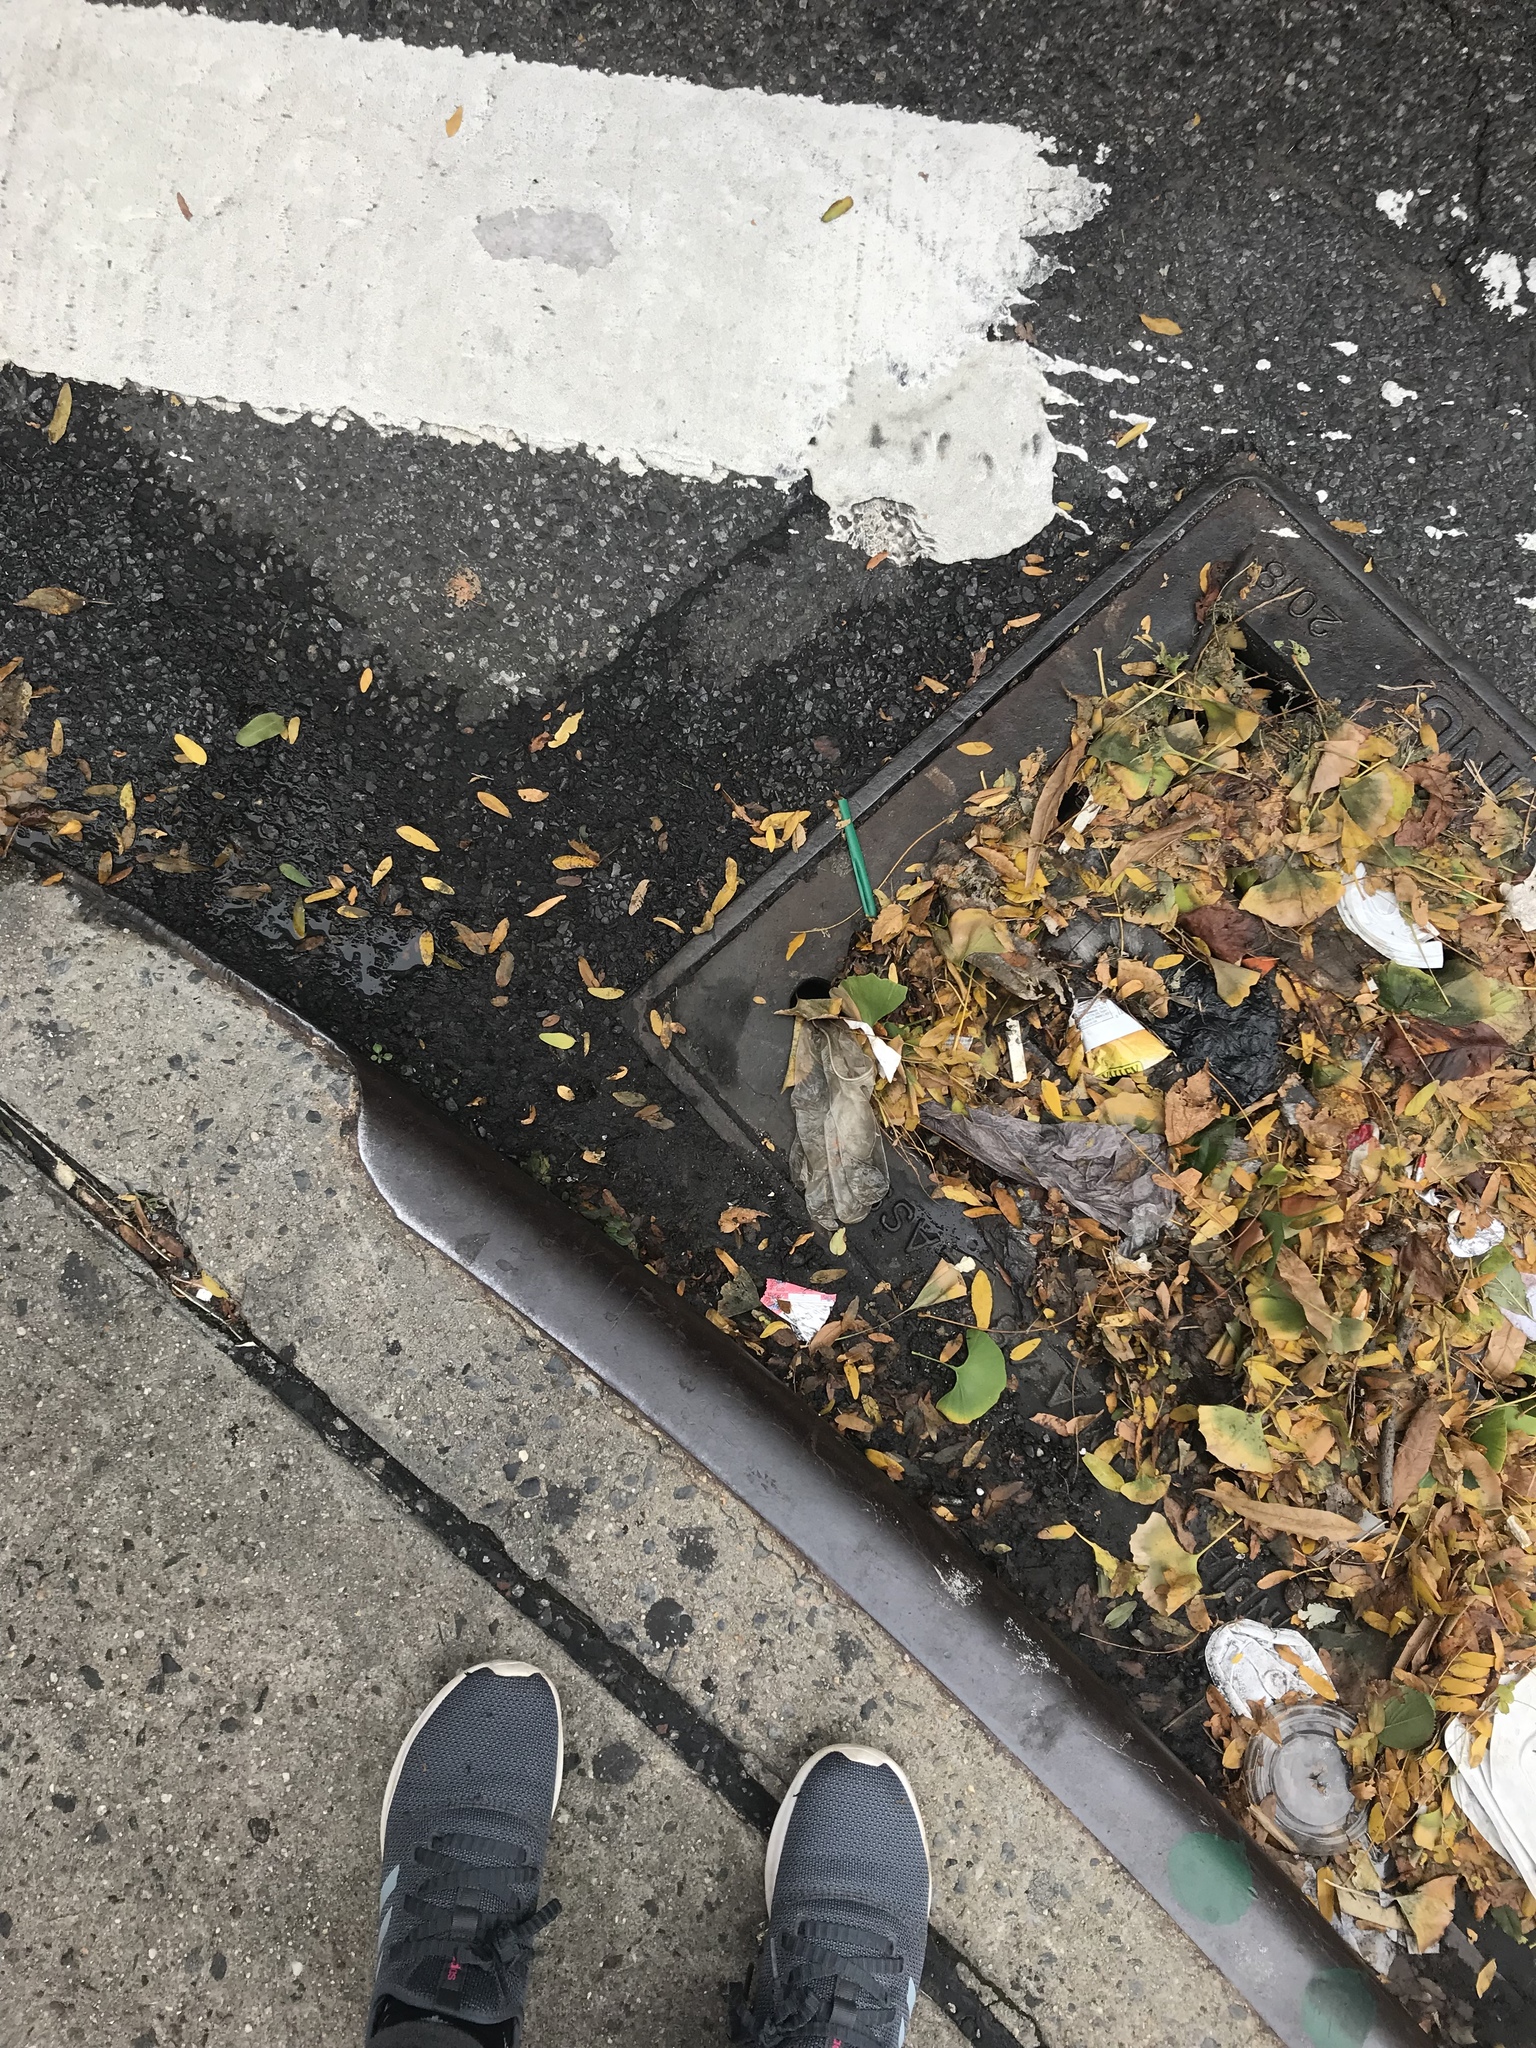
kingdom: Plantae
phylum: Tracheophyta
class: Magnoliopsida
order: Malpighiales
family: Euphorbiaceae
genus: Euphorbia
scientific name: Euphorbia ophthalmica
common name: Florida hammock sandmat
